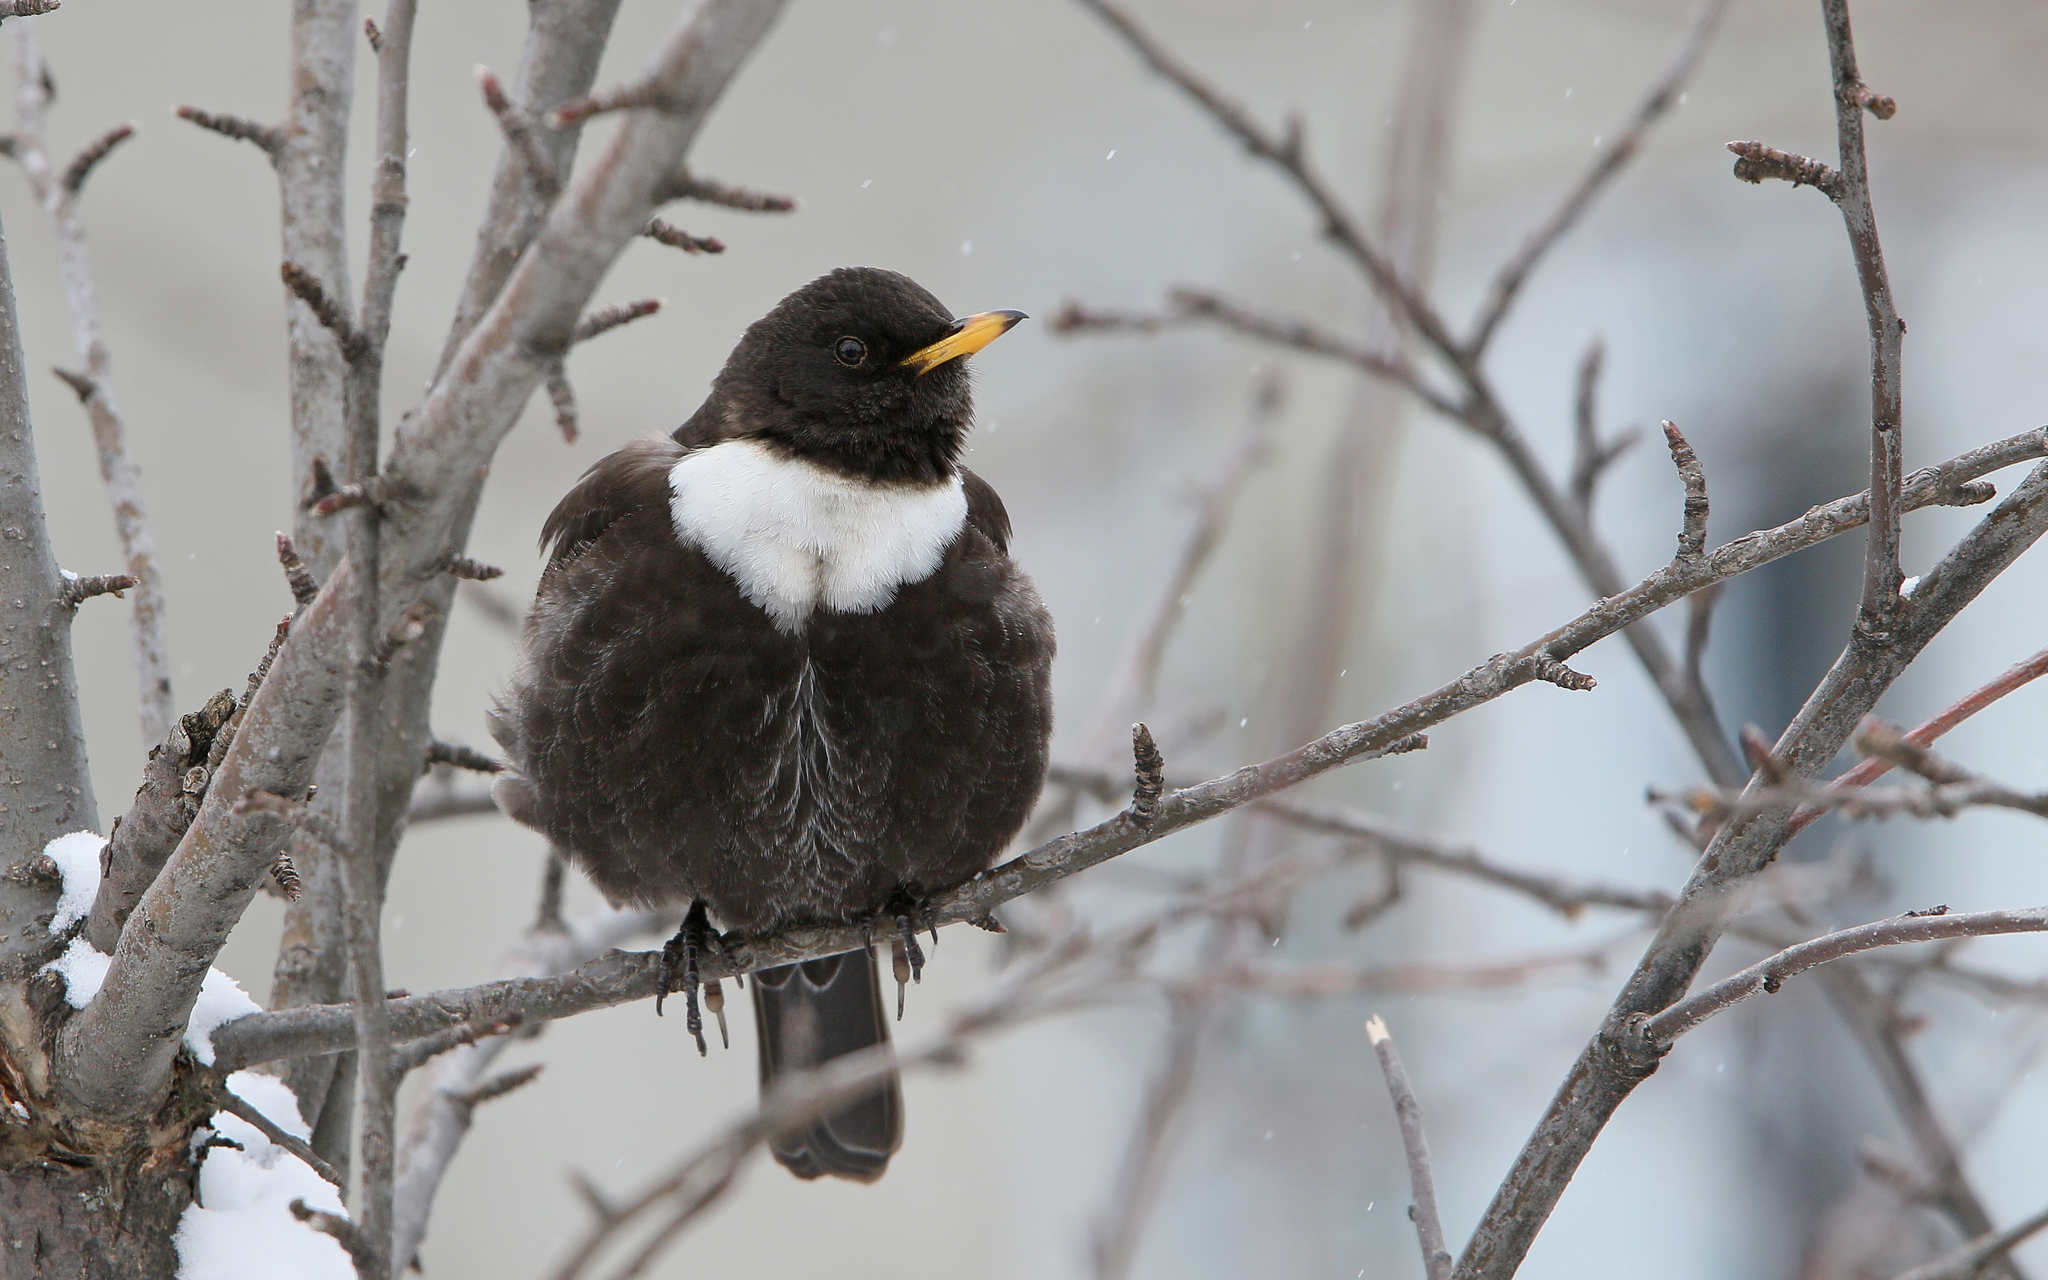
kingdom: Animalia
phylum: Chordata
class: Aves
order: Passeriformes
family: Turdidae
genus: Turdus
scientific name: Turdus torquatus
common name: Ring ouzel
